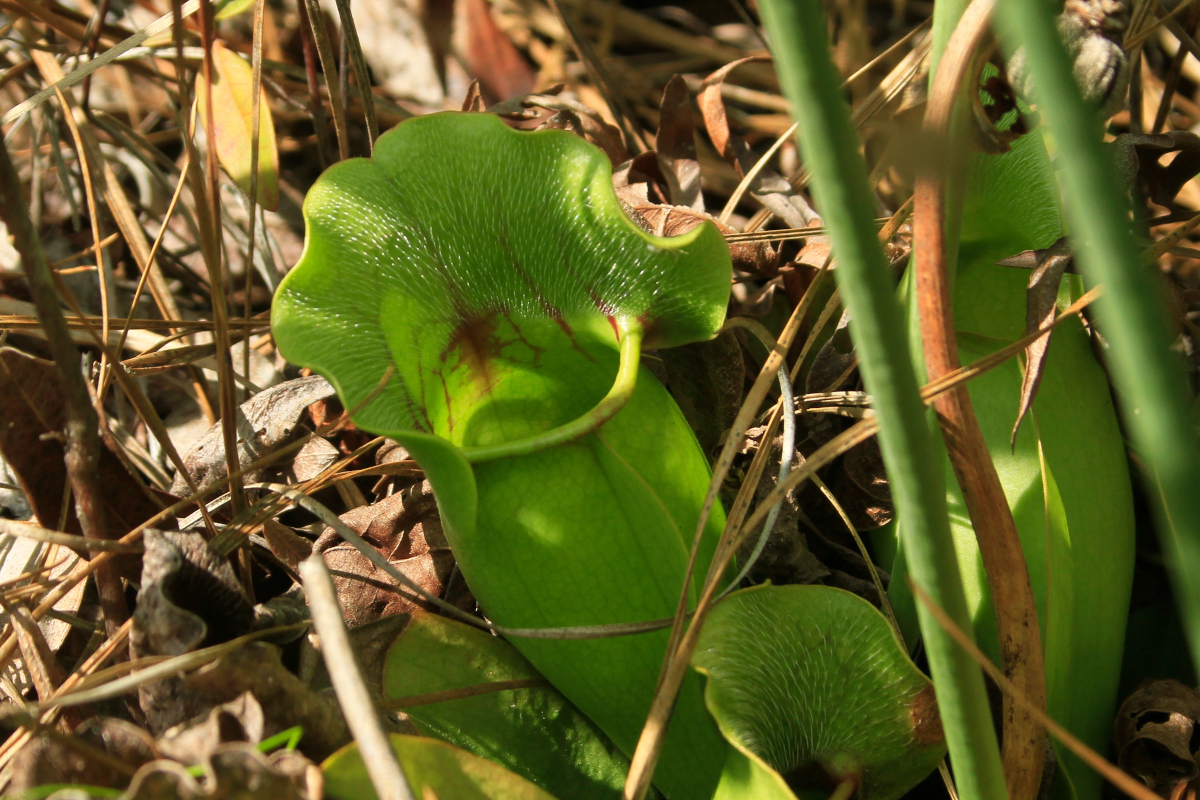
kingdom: Plantae
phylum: Tracheophyta
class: Magnoliopsida
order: Ericales
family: Sarraceniaceae
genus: Sarracenia
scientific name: Sarracenia purpurea
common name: Pitcherplant
